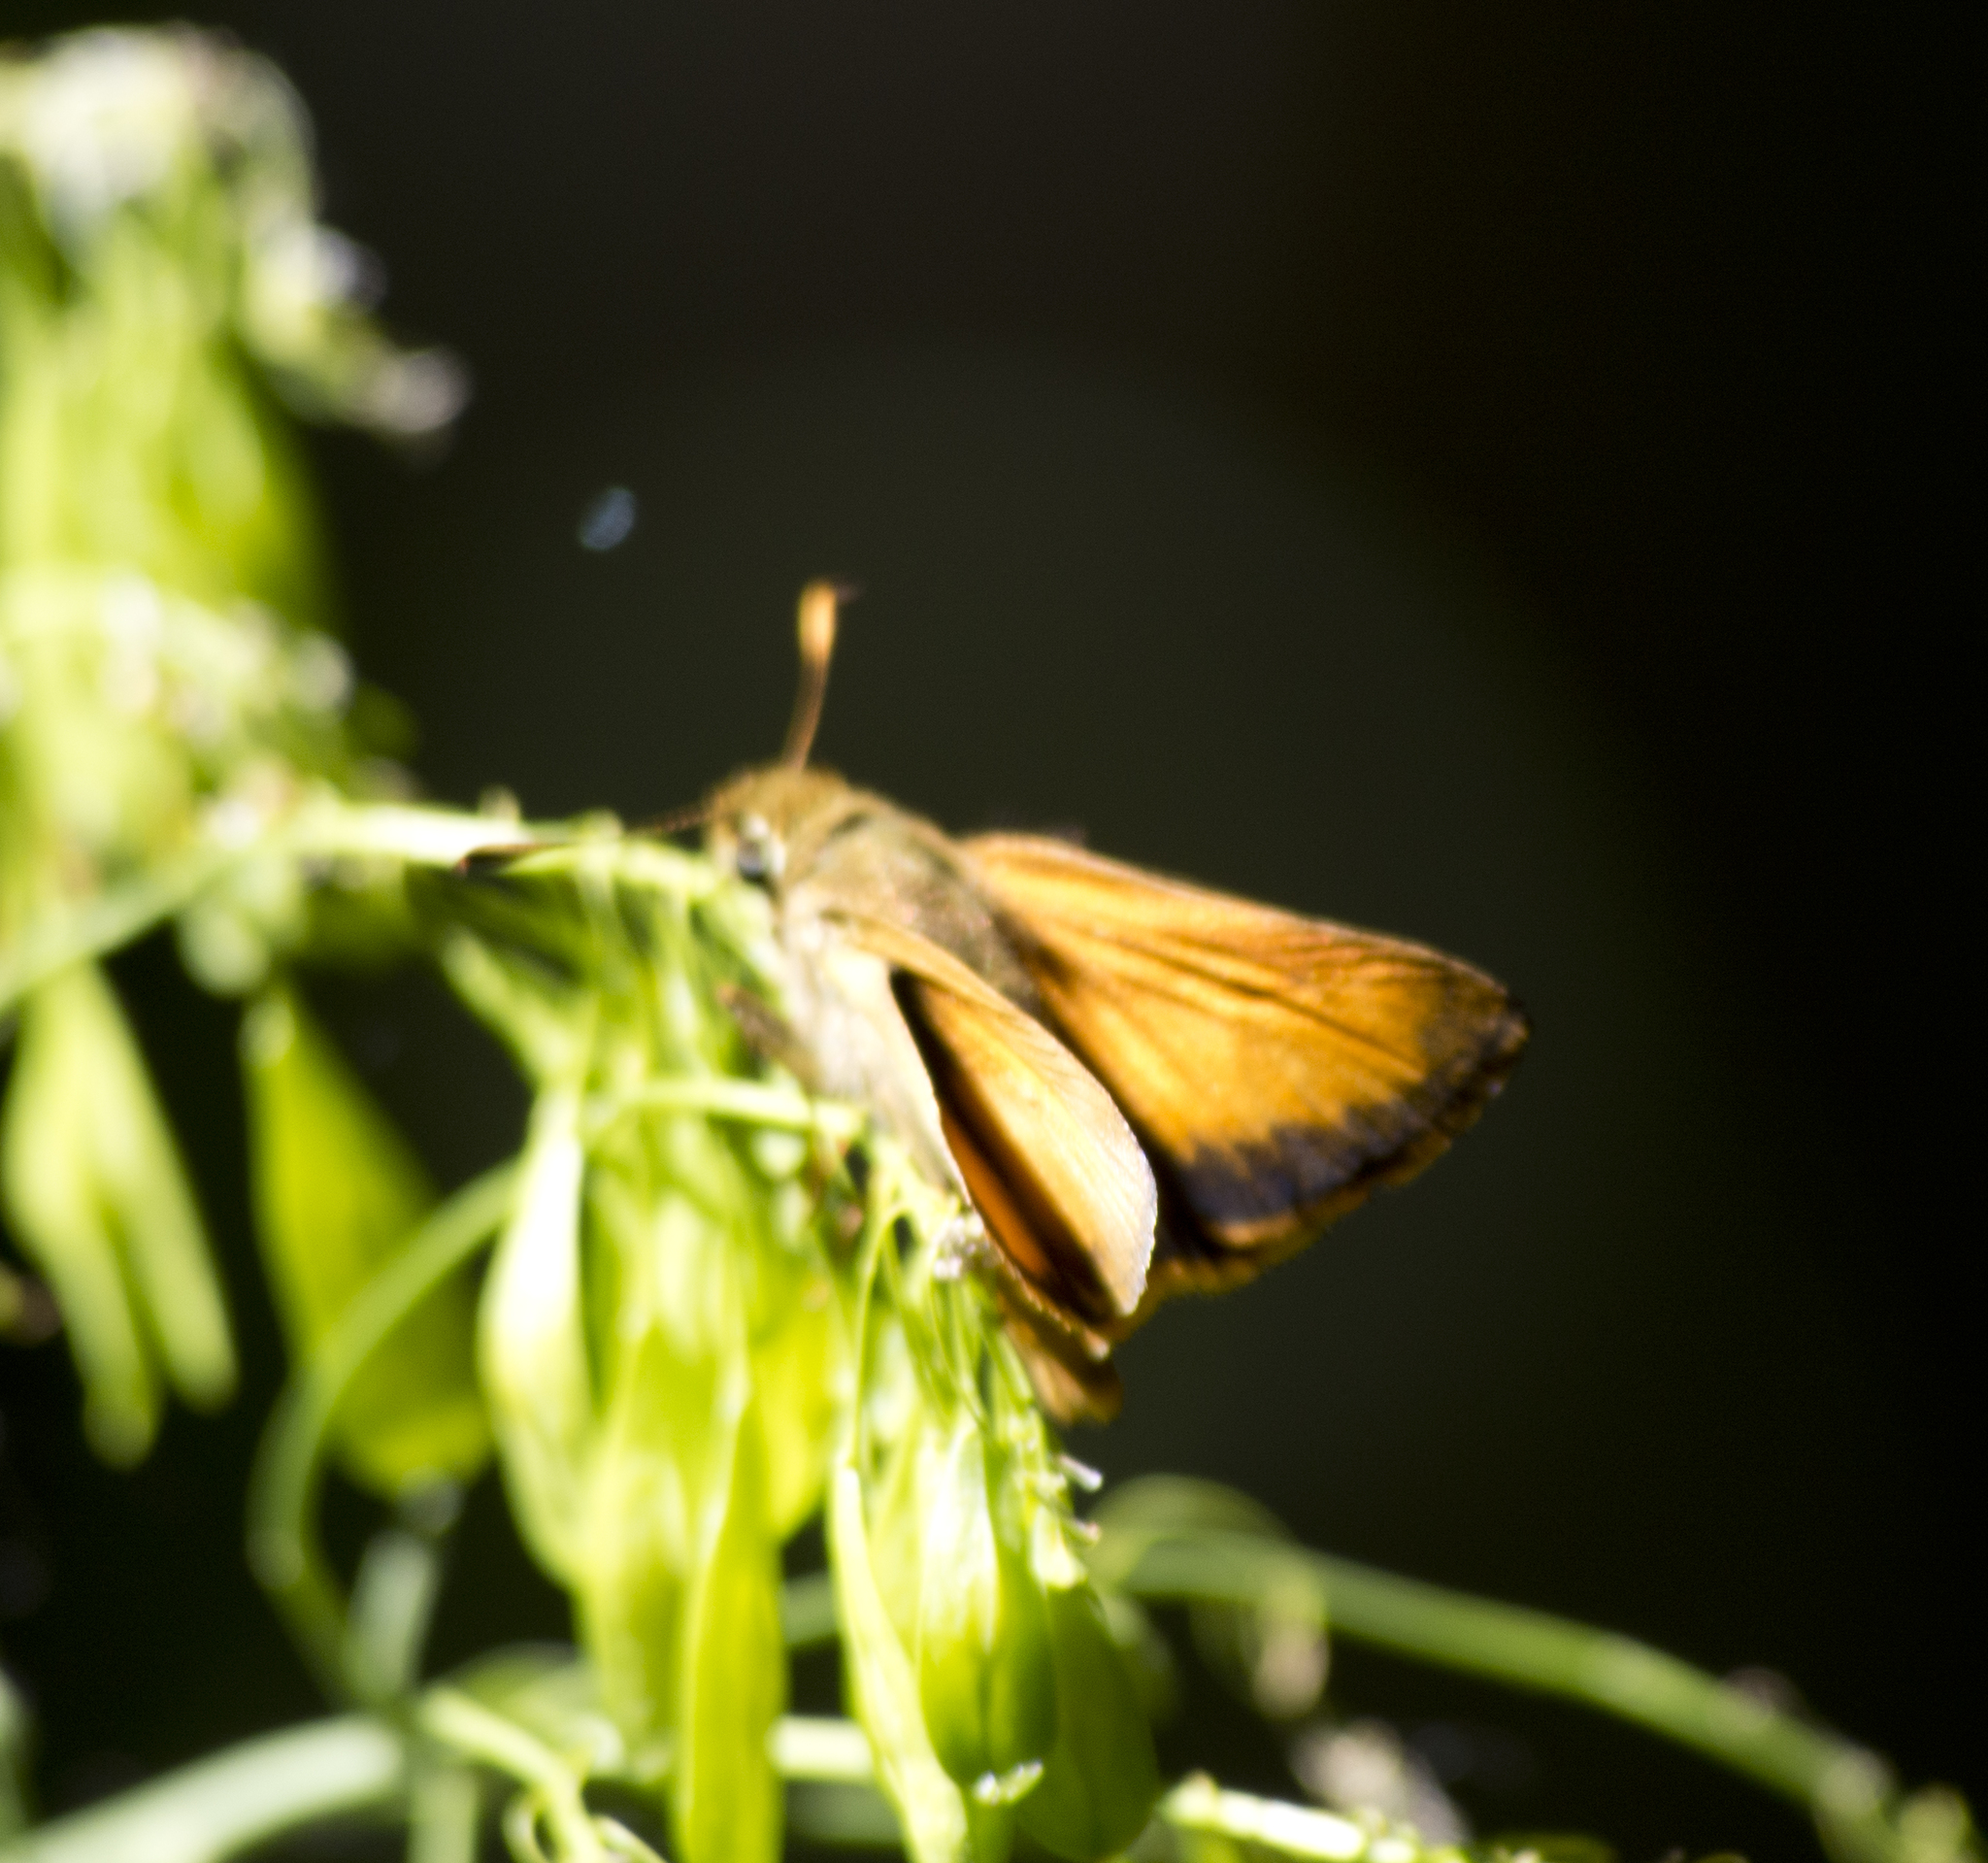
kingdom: Animalia
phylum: Arthropoda
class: Insecta
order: Lepidoptera
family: Hesperiidae
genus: Lon
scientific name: Lon taxiles
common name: Taxiles skipper
